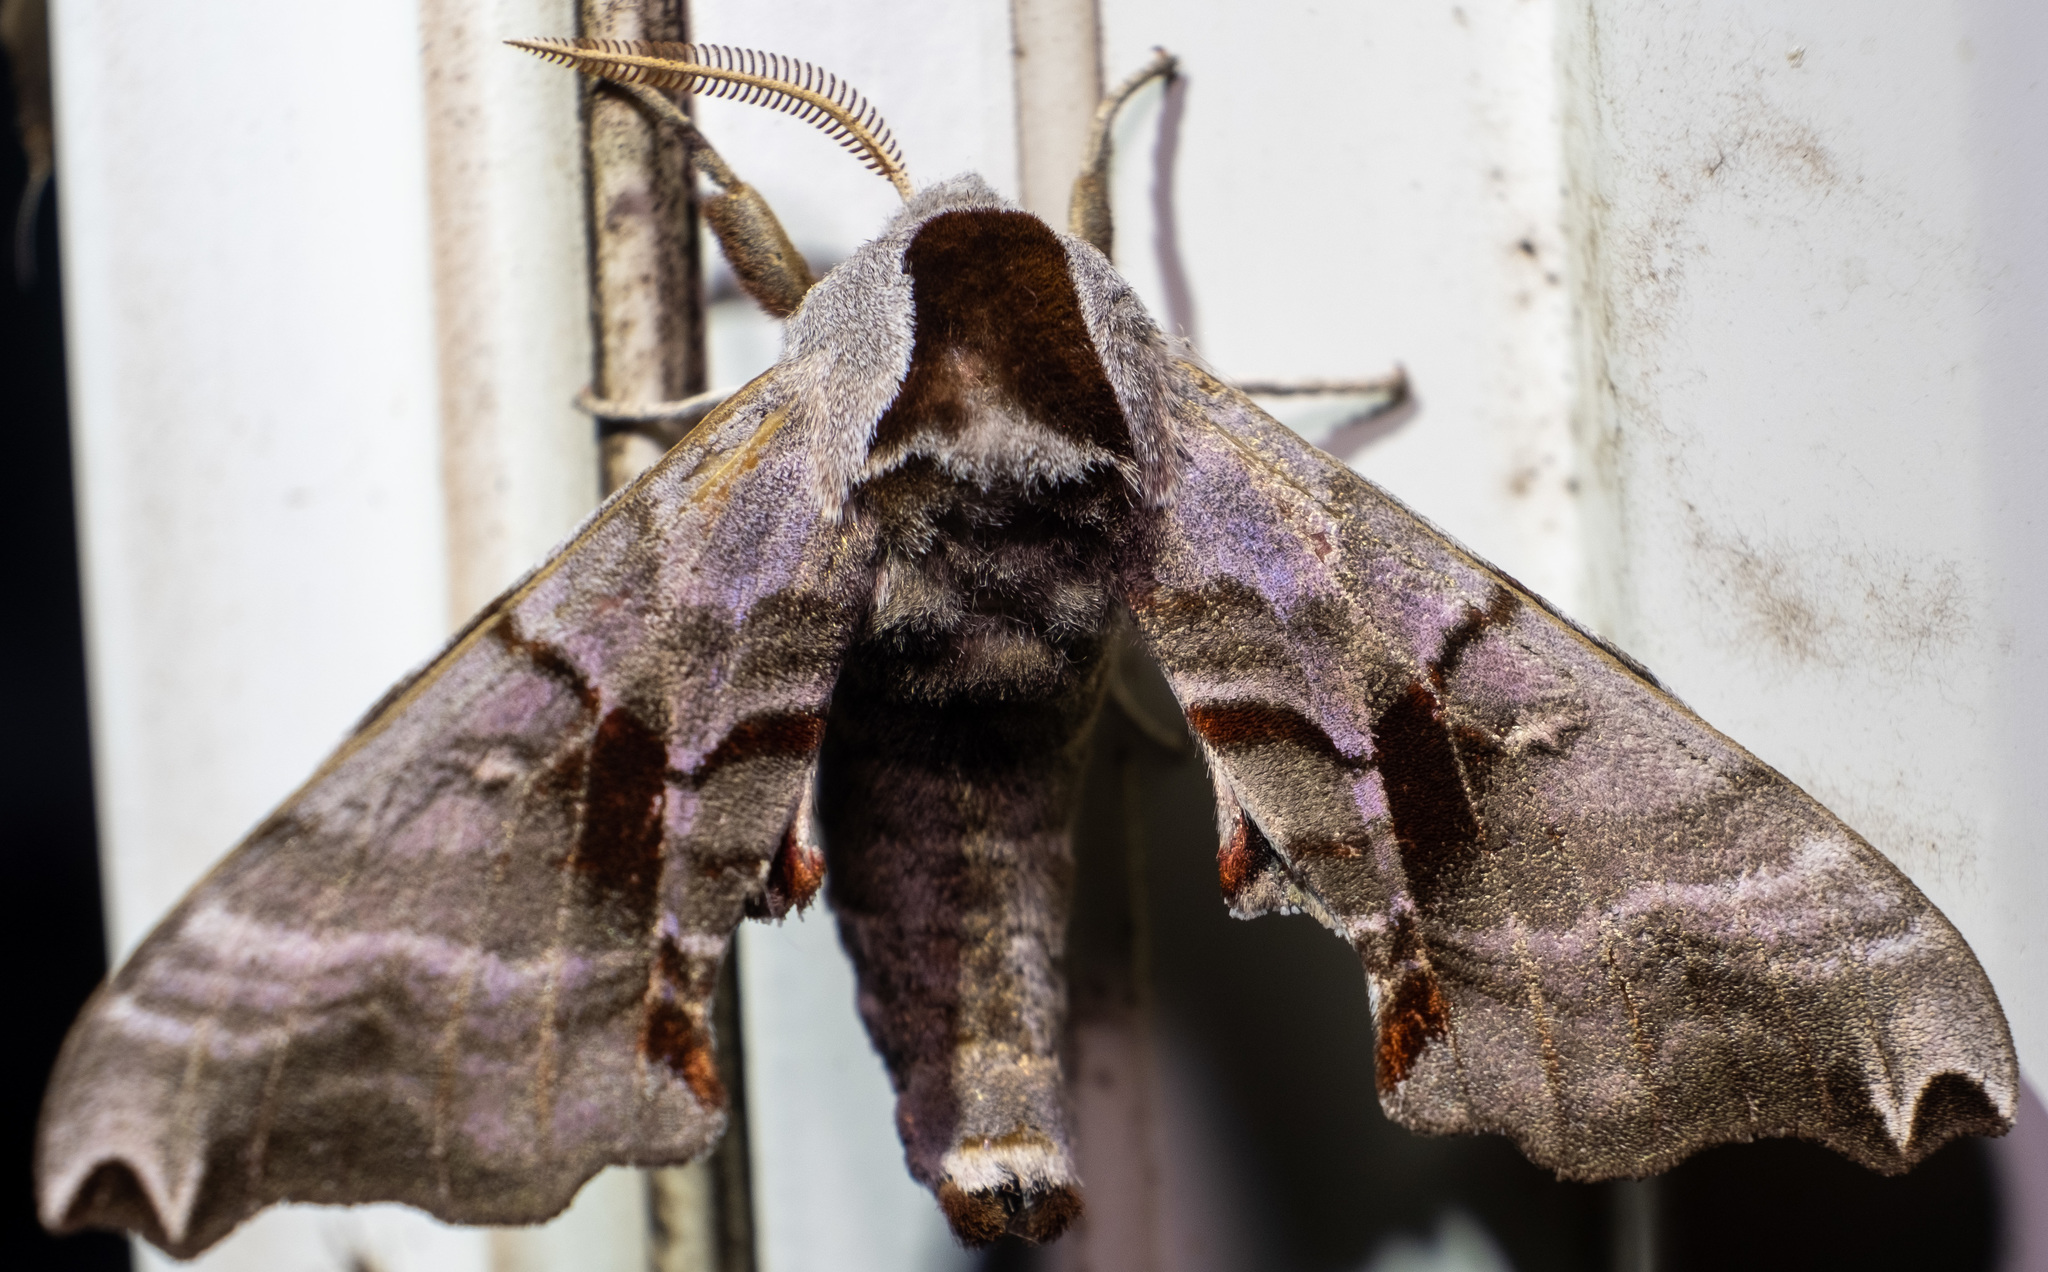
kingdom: Animalia
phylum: Arthropoda
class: Insecta
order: Lepidoptera
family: Sphingidae
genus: Smerinthus
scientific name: Smerinthus jamaicensis
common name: Twin spotted sphinx
